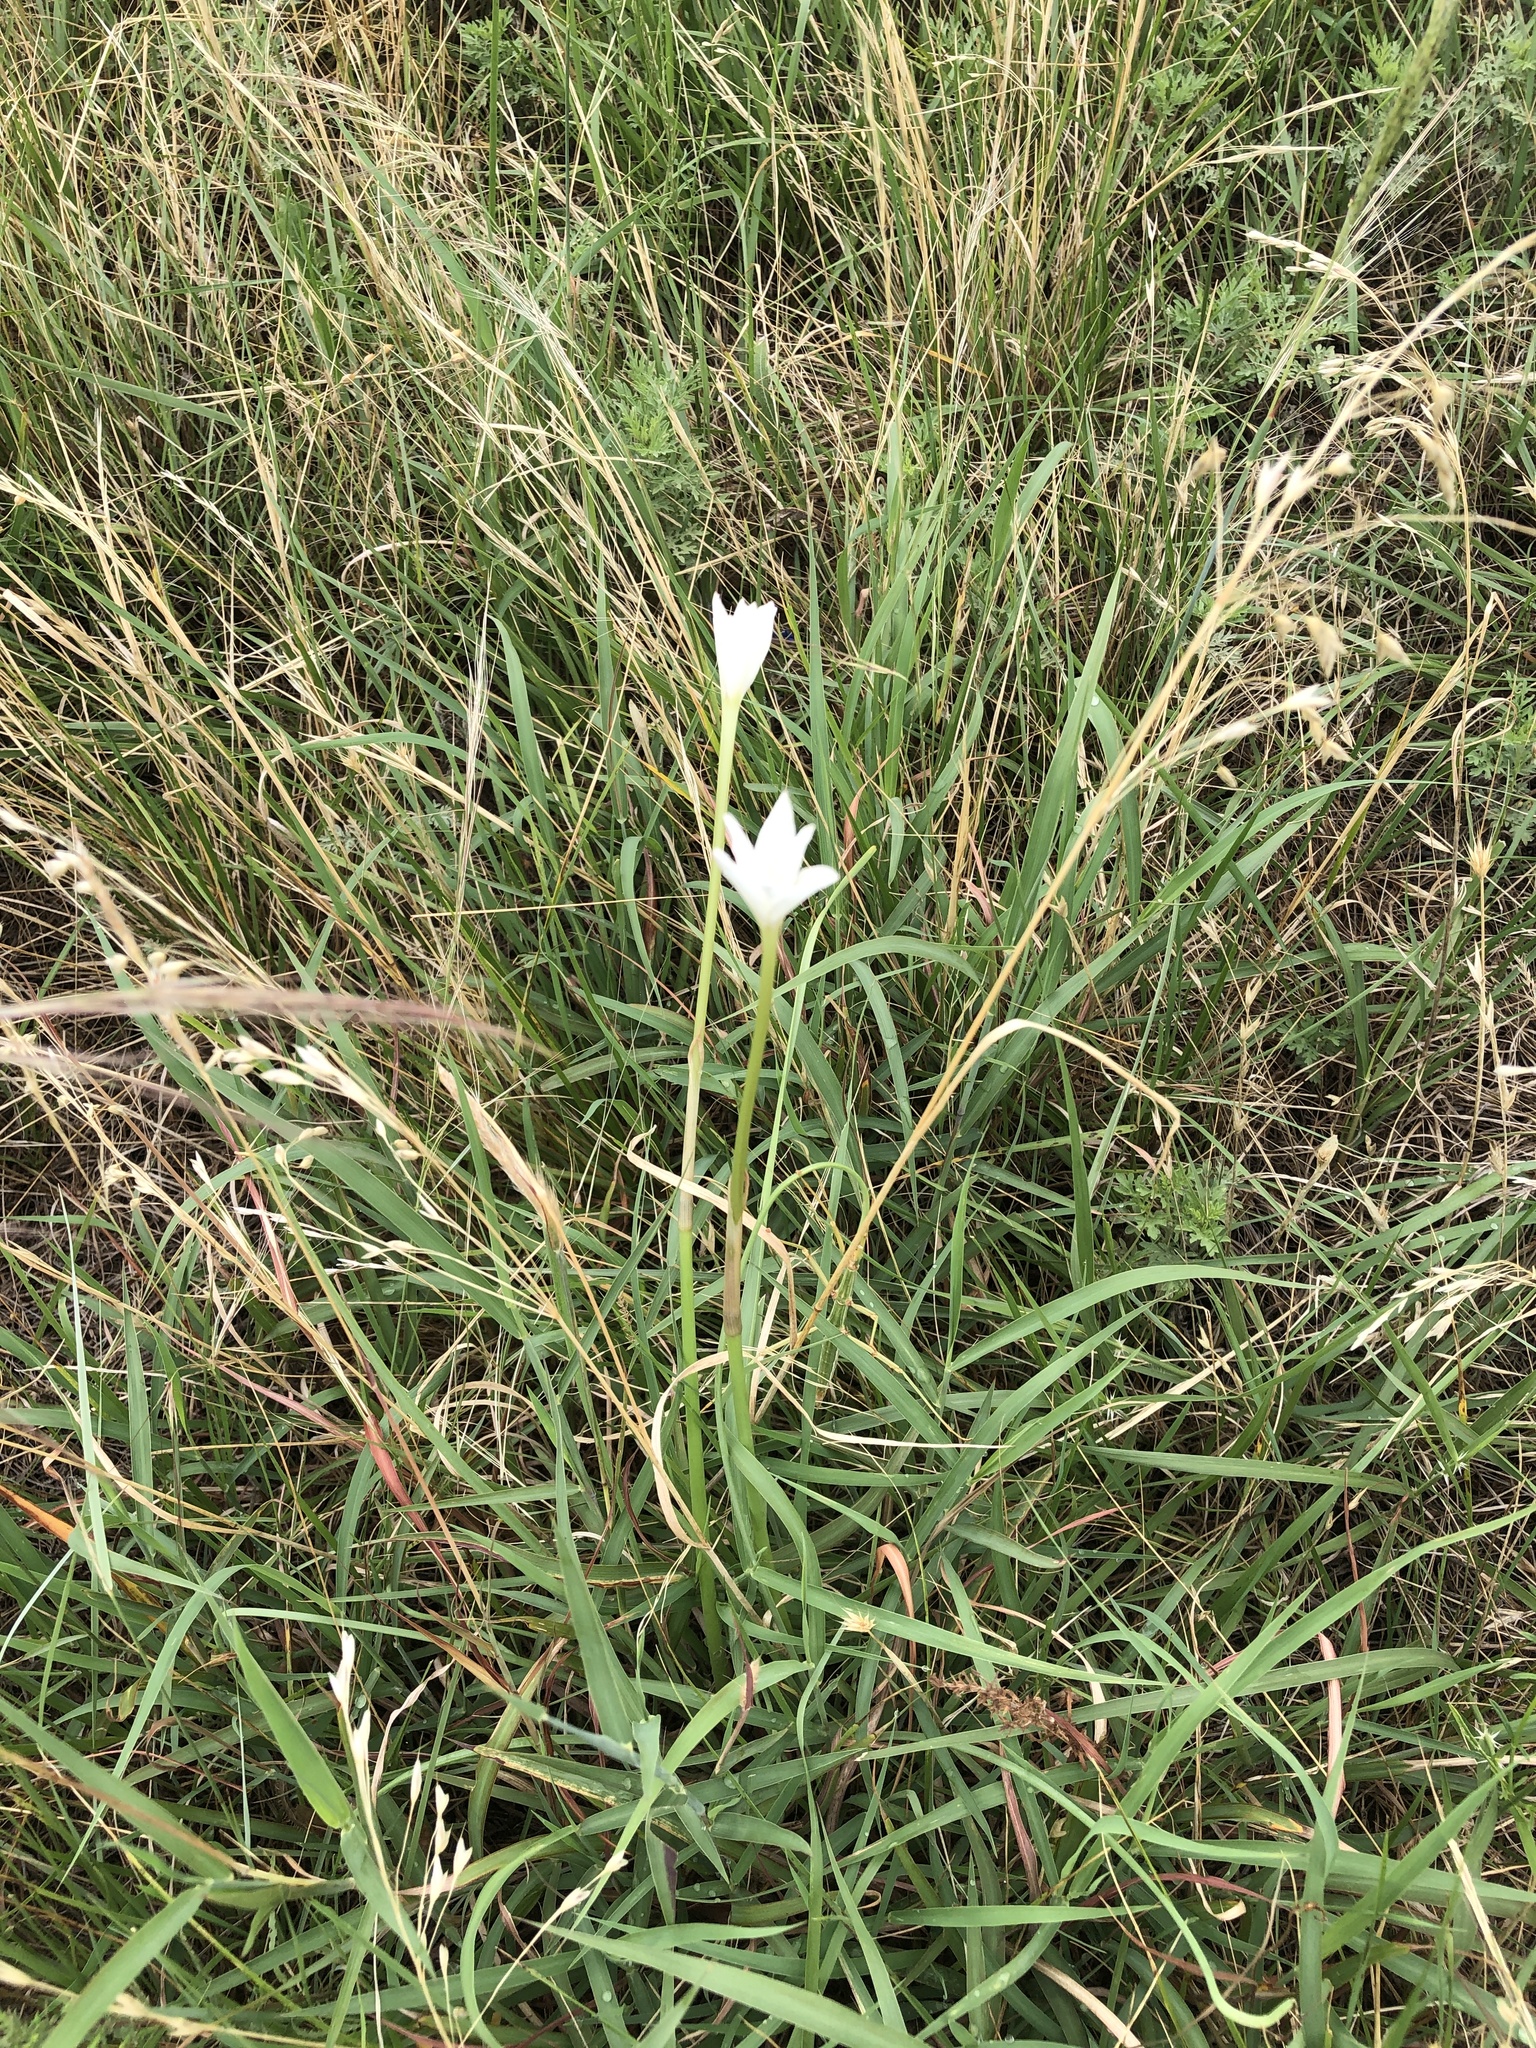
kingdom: Plantae
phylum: Tracheophyta
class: Liliopsida
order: Asparagales
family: Amaryllidaceae
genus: Zephyranthes
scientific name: Zephyranthes chlorosolen
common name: Evening rain-lily
